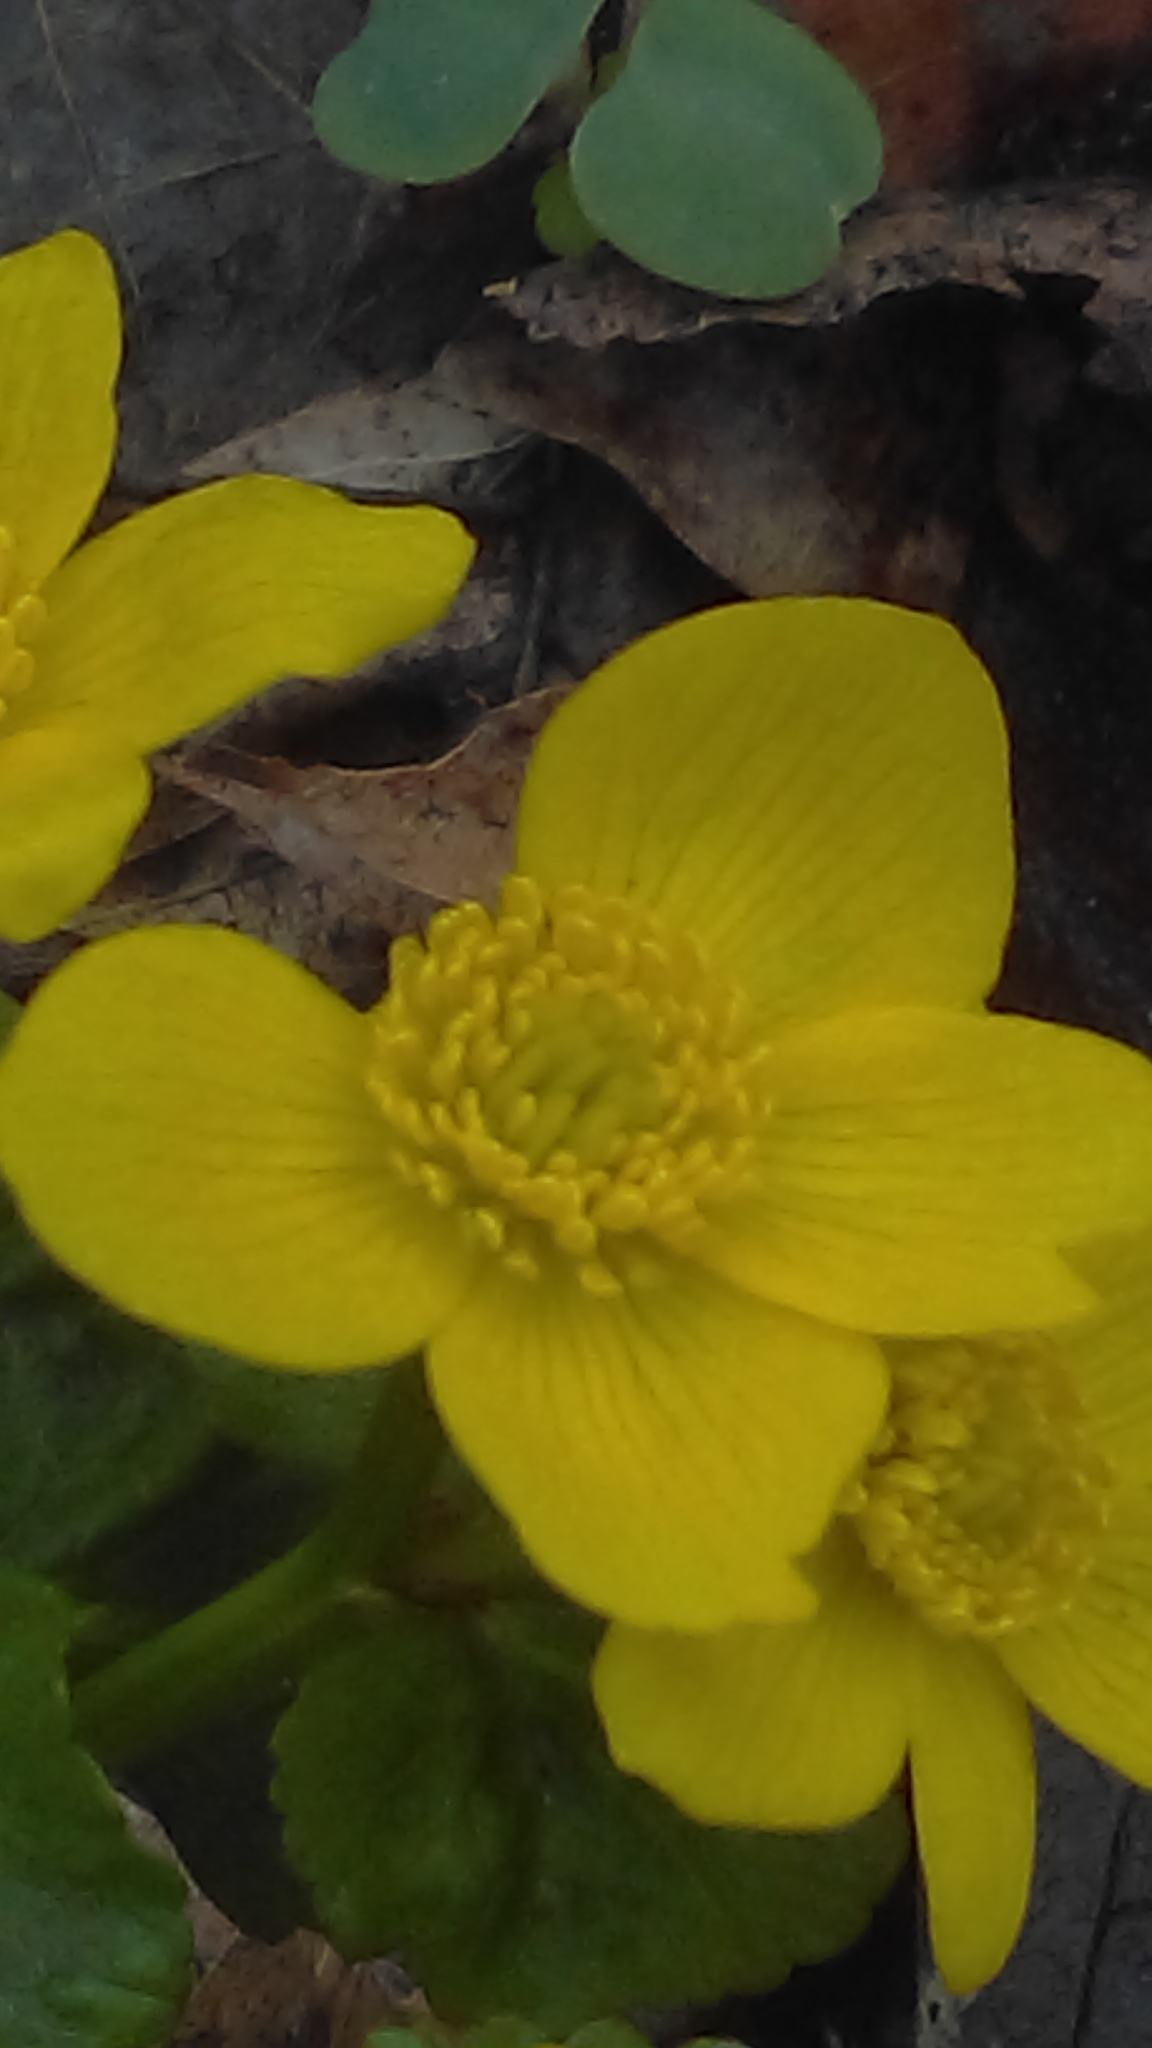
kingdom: Plantae
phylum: Tracheophyta
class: Magnoliopsida
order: Ranunculales
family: Ranunculaceae
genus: Caltha
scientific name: Caltha palustris
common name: Marsh marigold
